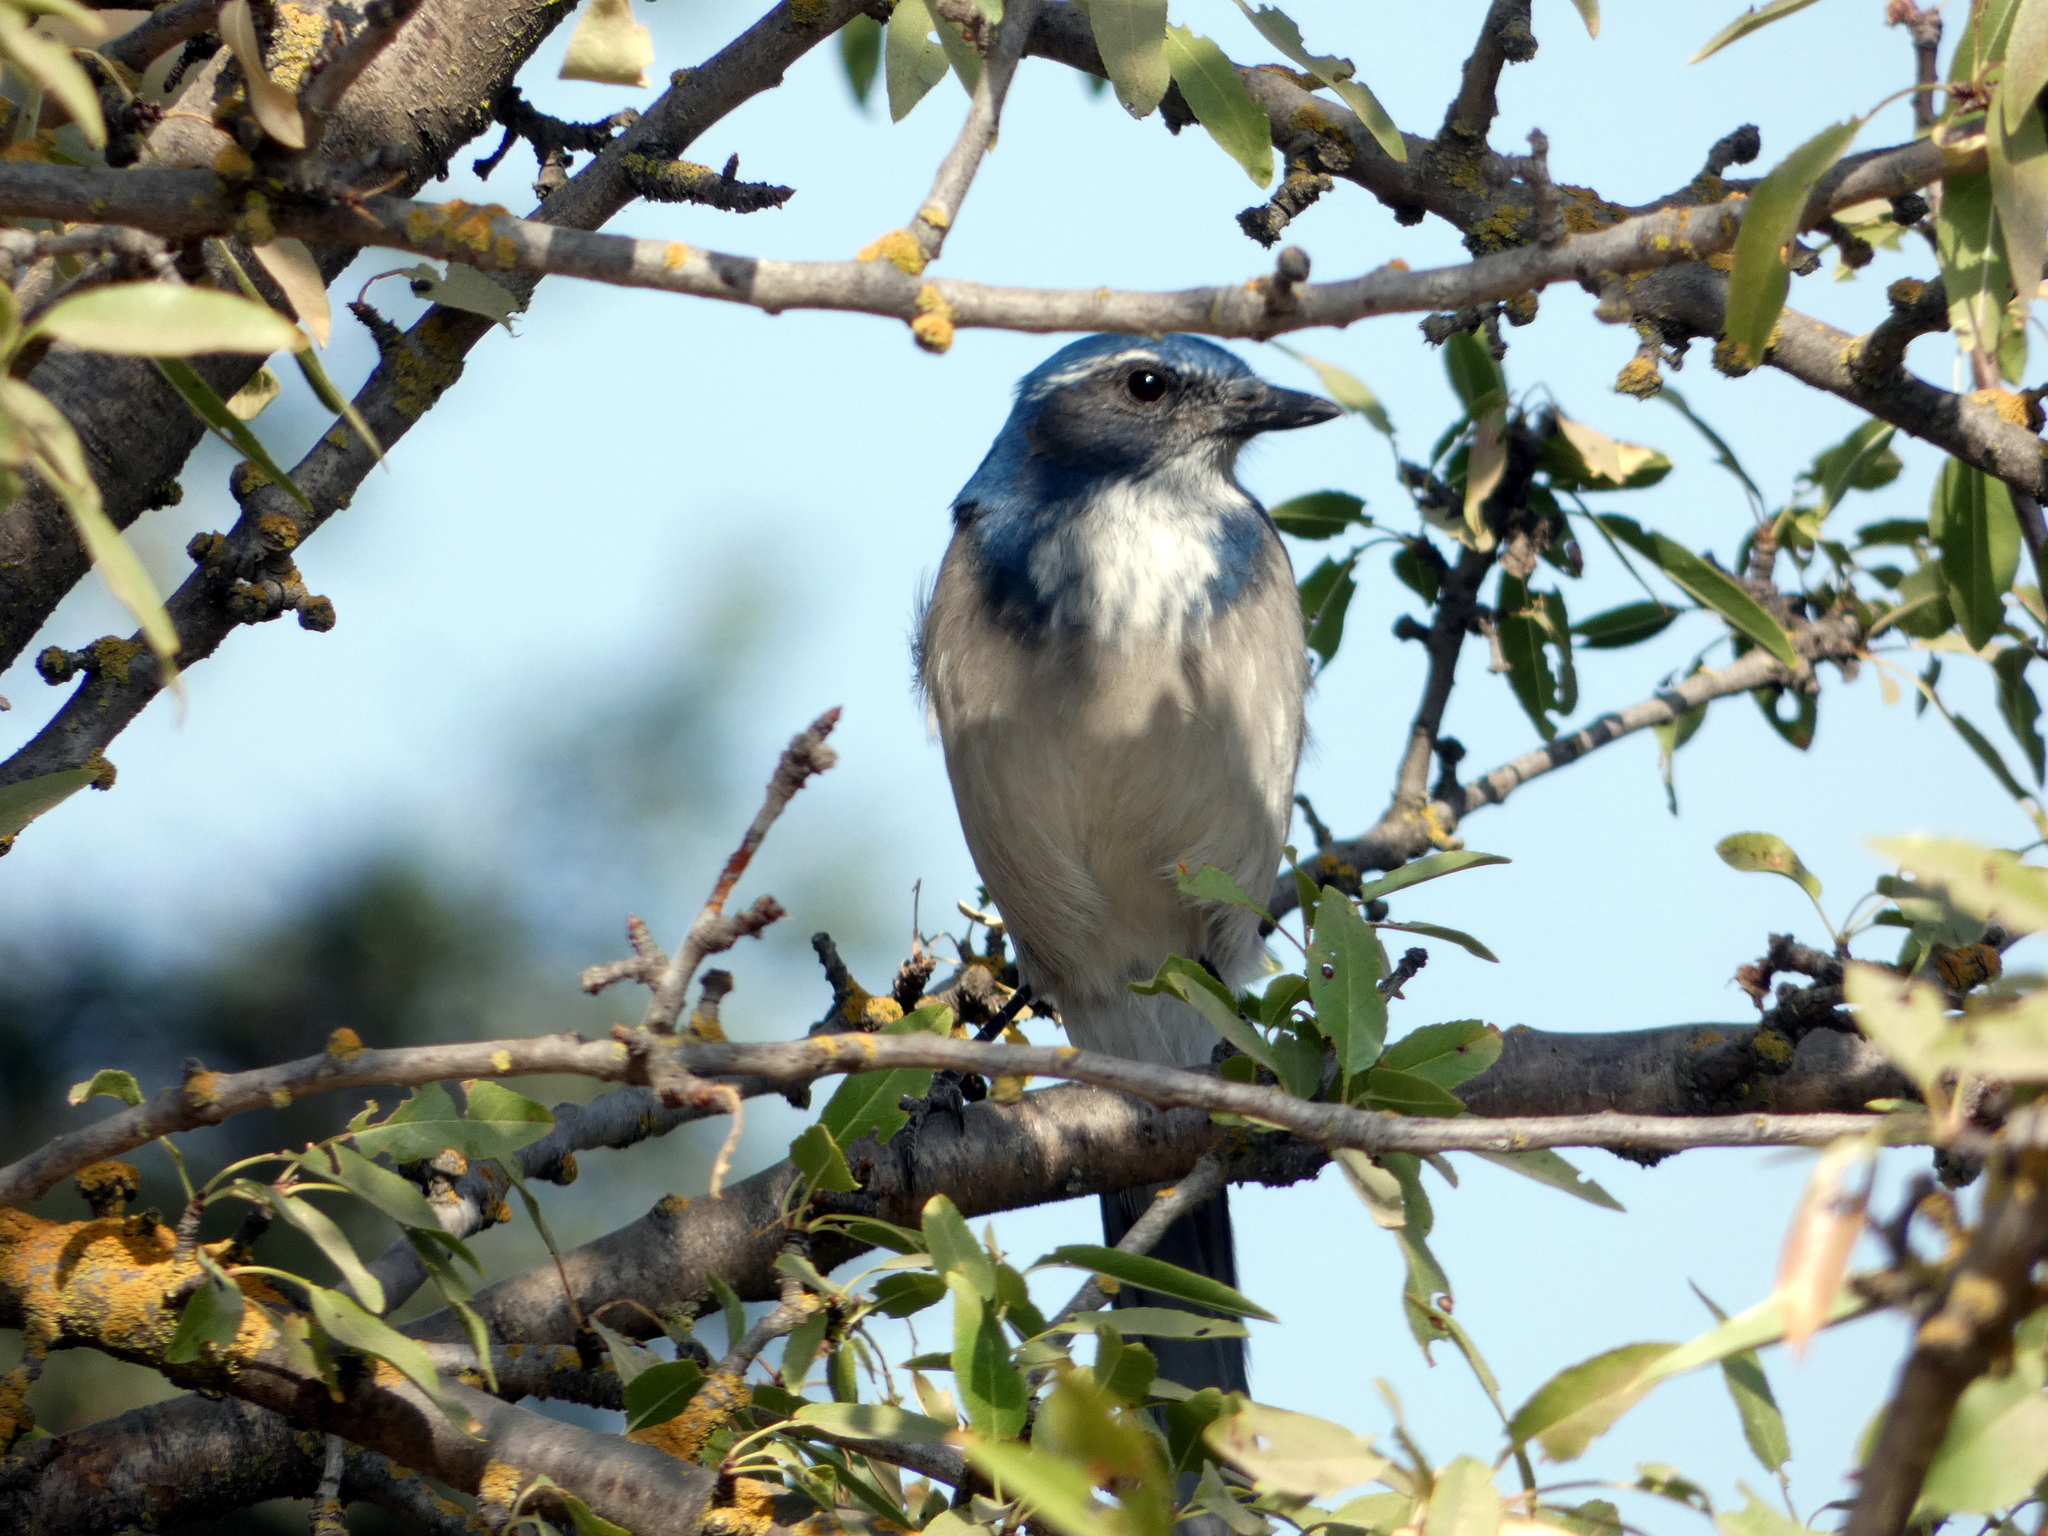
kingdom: Animalia
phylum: Chordata
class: Aves
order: Passeriformes
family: Corvidae
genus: Aphelocoma
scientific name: Aphelocoma californica
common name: California scrub-jay
